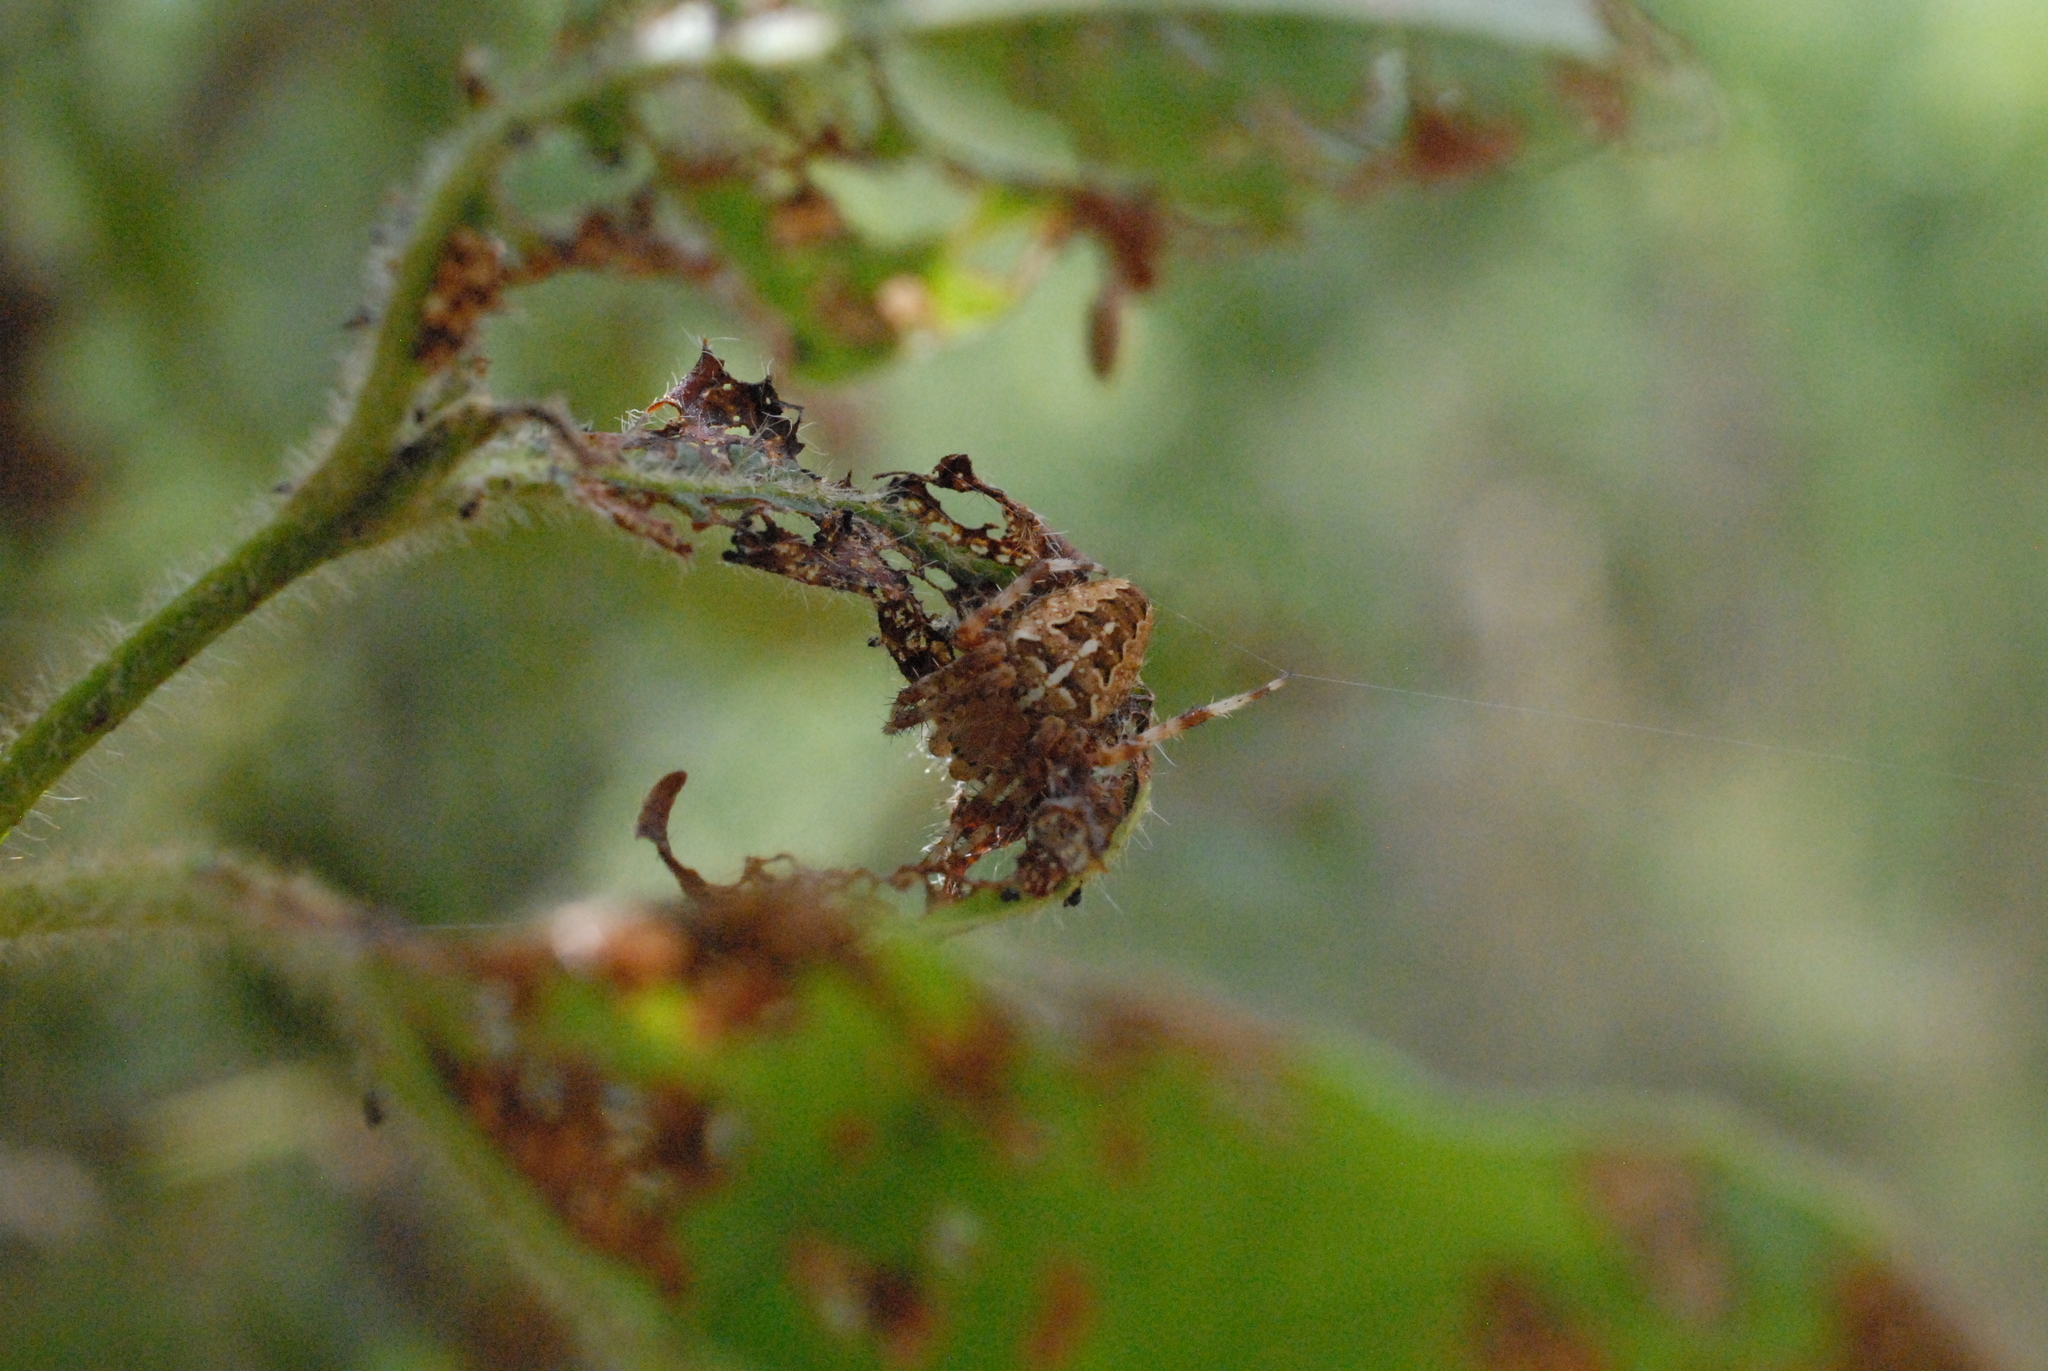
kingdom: Animalia
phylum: Arthropoda
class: Arachnida
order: Araneae
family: Araneidae
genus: Araneus
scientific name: Araneus diadematus
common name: Cross orbweaver
